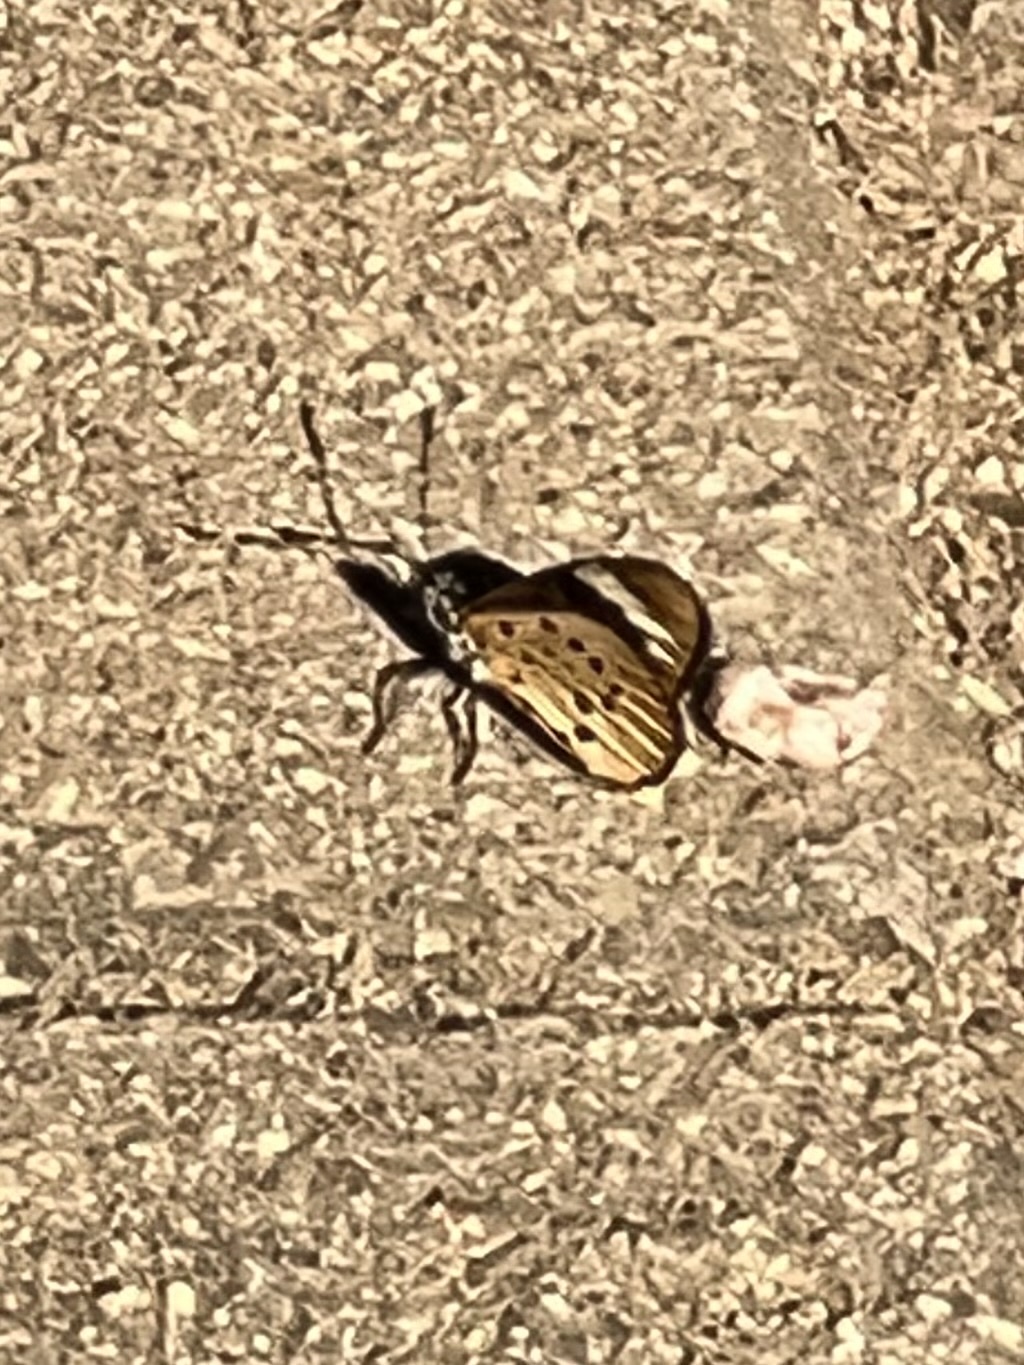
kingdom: Animalia
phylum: Arthropoda
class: Insecta
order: Lepidoptera
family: Nymphalidae
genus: Acraea
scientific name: Acraea Telchinia encedon
